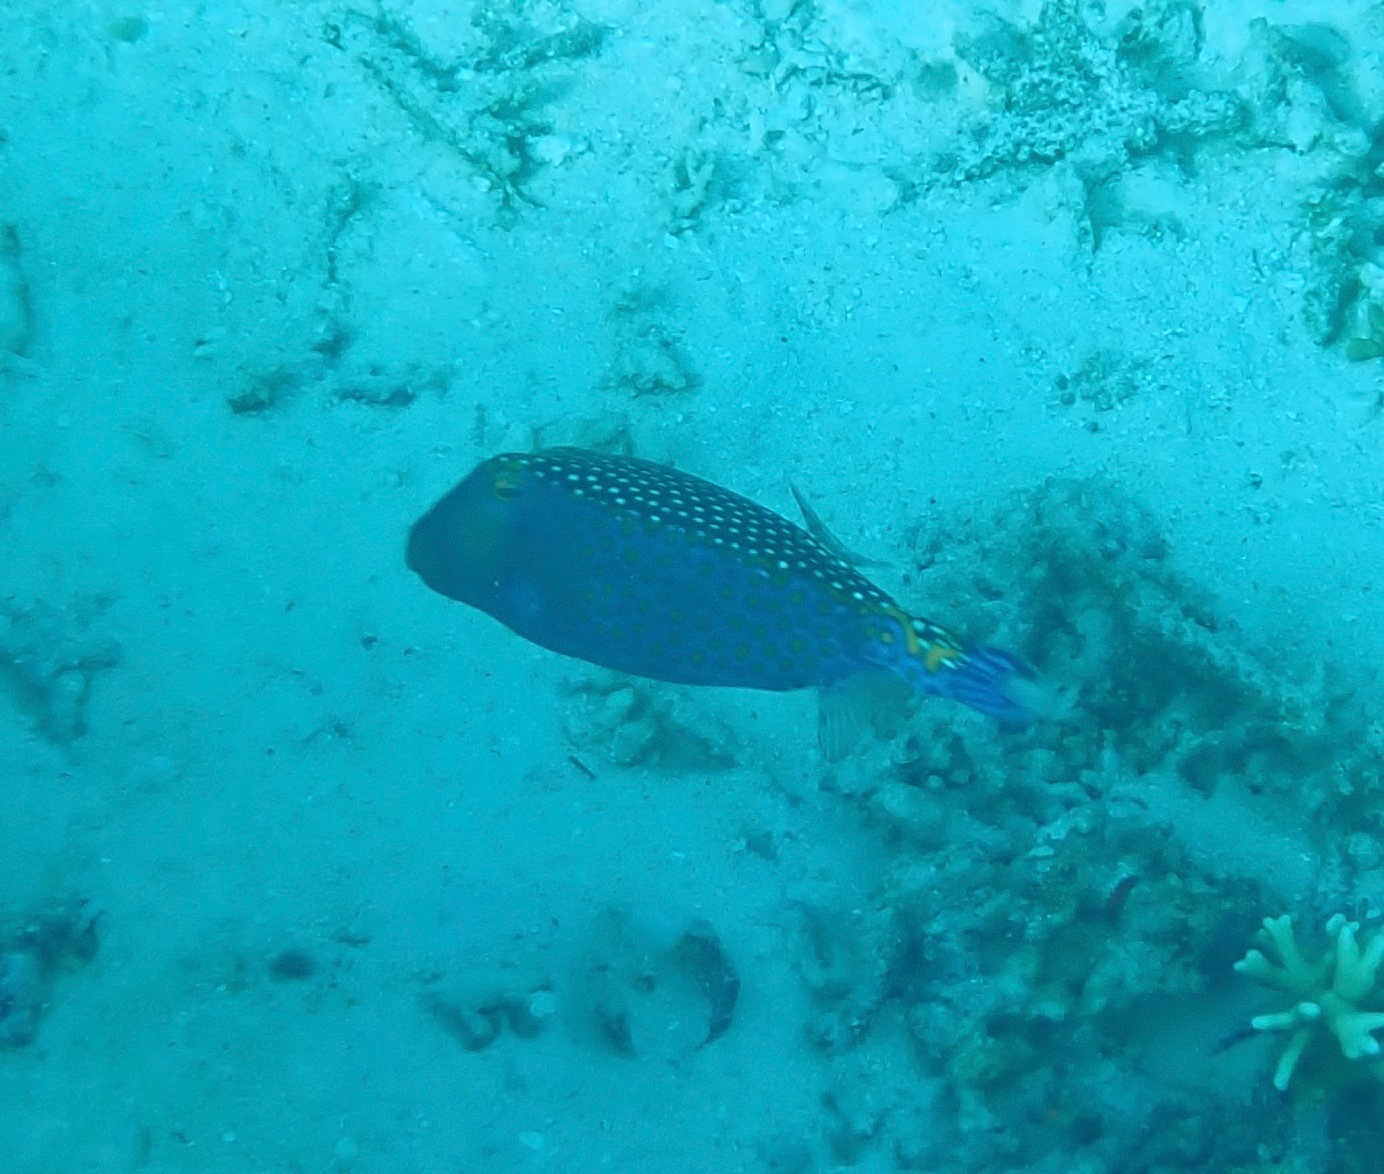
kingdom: Animalia
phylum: Chordata
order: Tetraodontiformes
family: Ostraciidae
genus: Ostracion
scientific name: Ostracion meleagris
